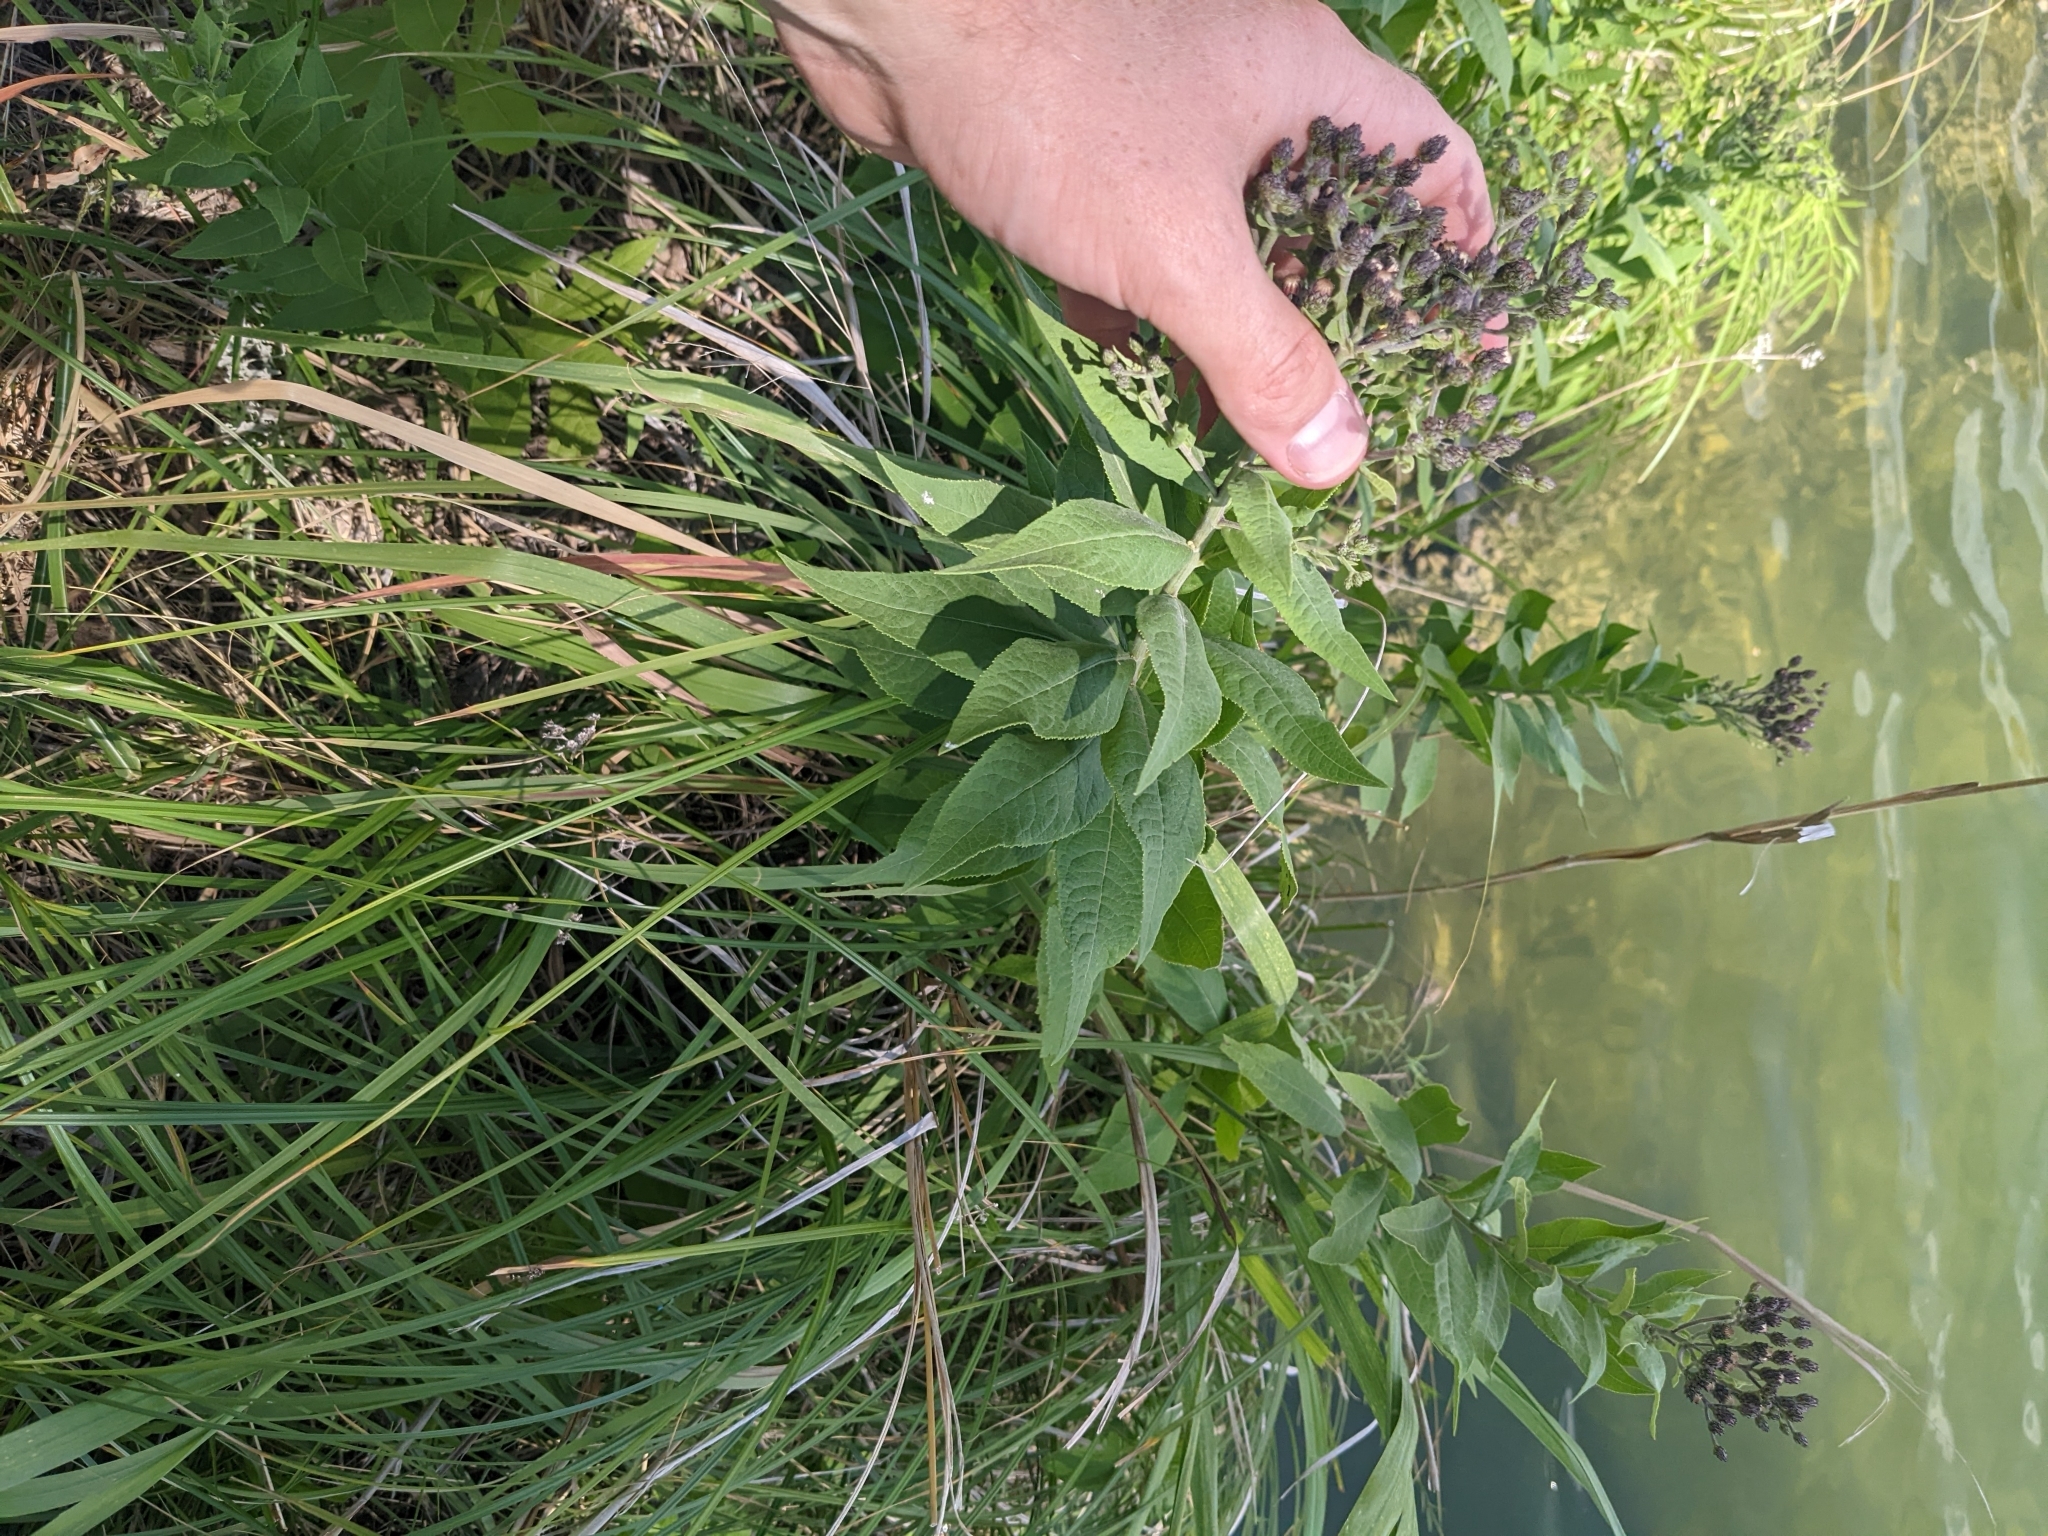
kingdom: Plantae
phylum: Tracheophyta
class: Magnoliopsida
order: Asterales
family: Asteraceae
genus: Vernonia
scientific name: Vernonia baldwinii
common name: Western ironweed
